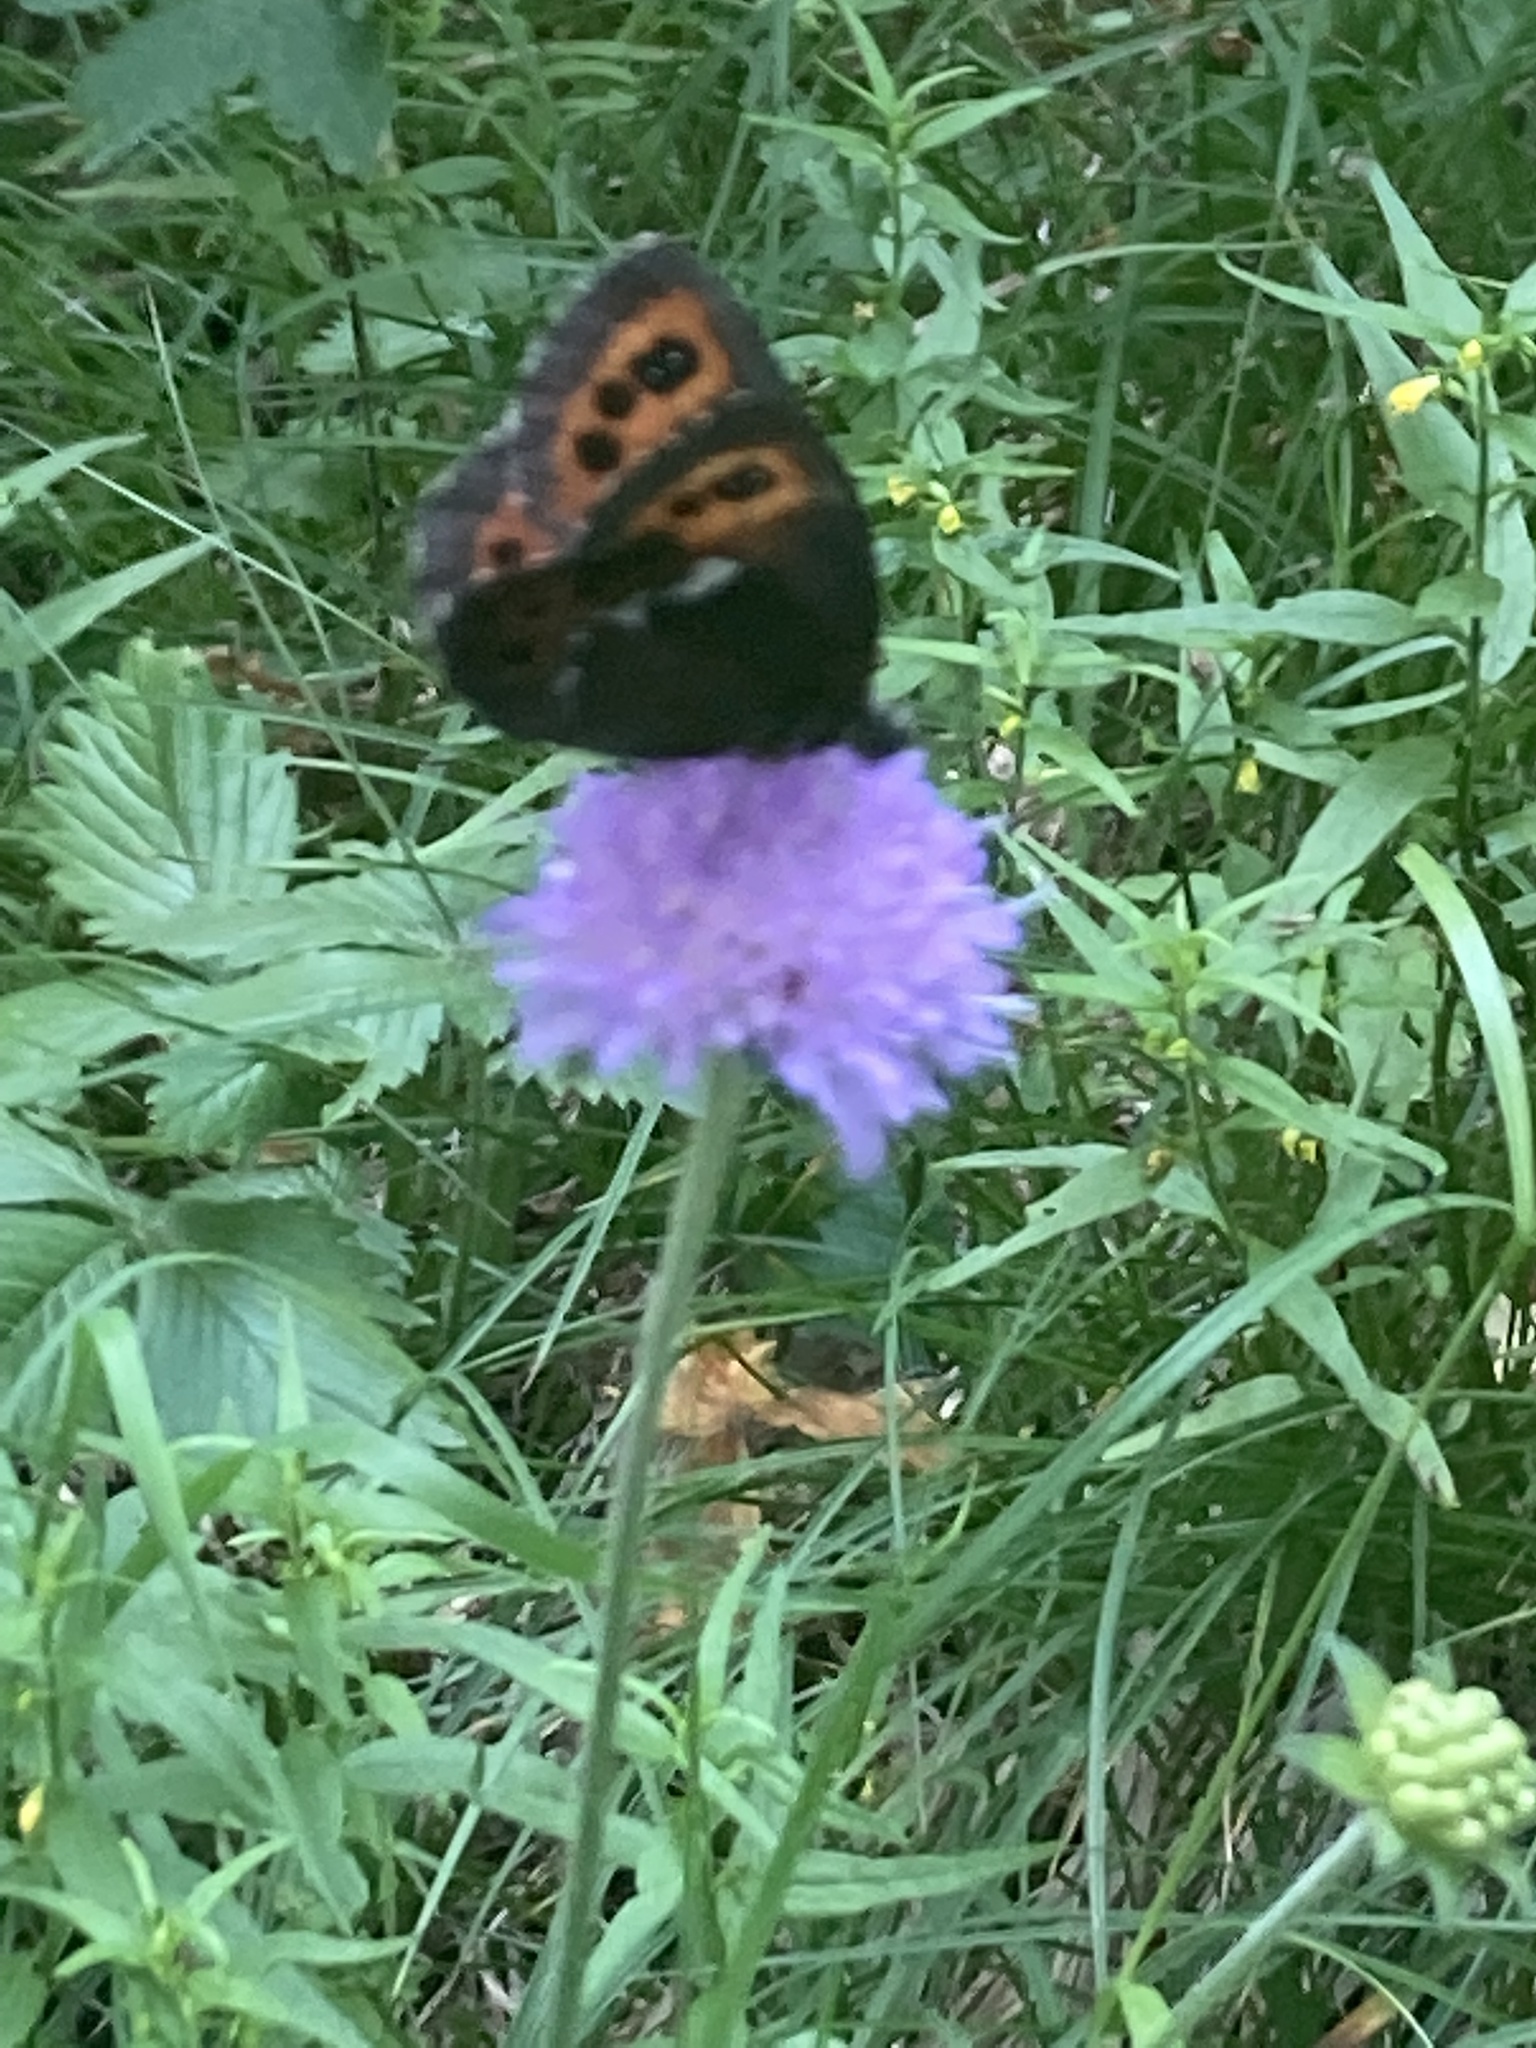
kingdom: Animalia
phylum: Arthropoda
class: Insecta
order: Lepidoptera
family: Nymphalidae
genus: Erebia
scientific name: Erebia ligea
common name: Arran brown
